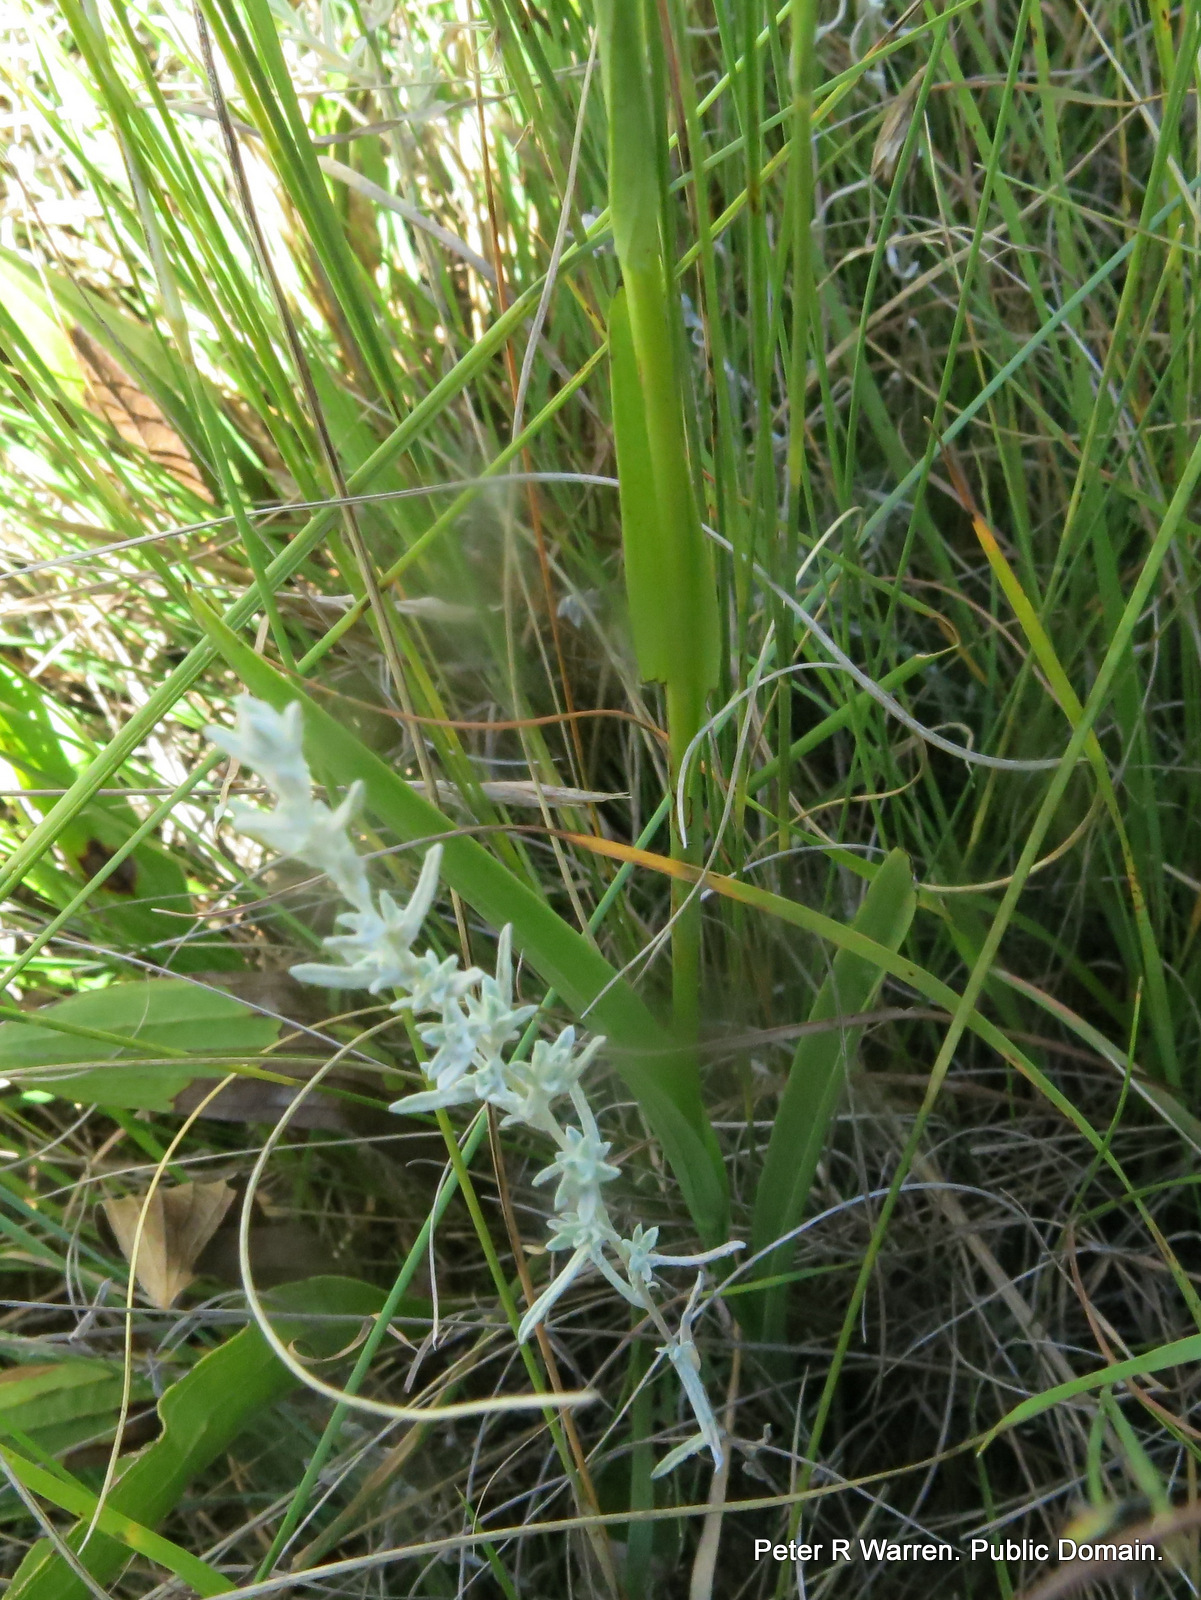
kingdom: Plantae
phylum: Tracheophyta
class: Liliopsida
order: Asparagales
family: Orchidaceae
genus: Habenaria
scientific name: Habenaria filicornis
